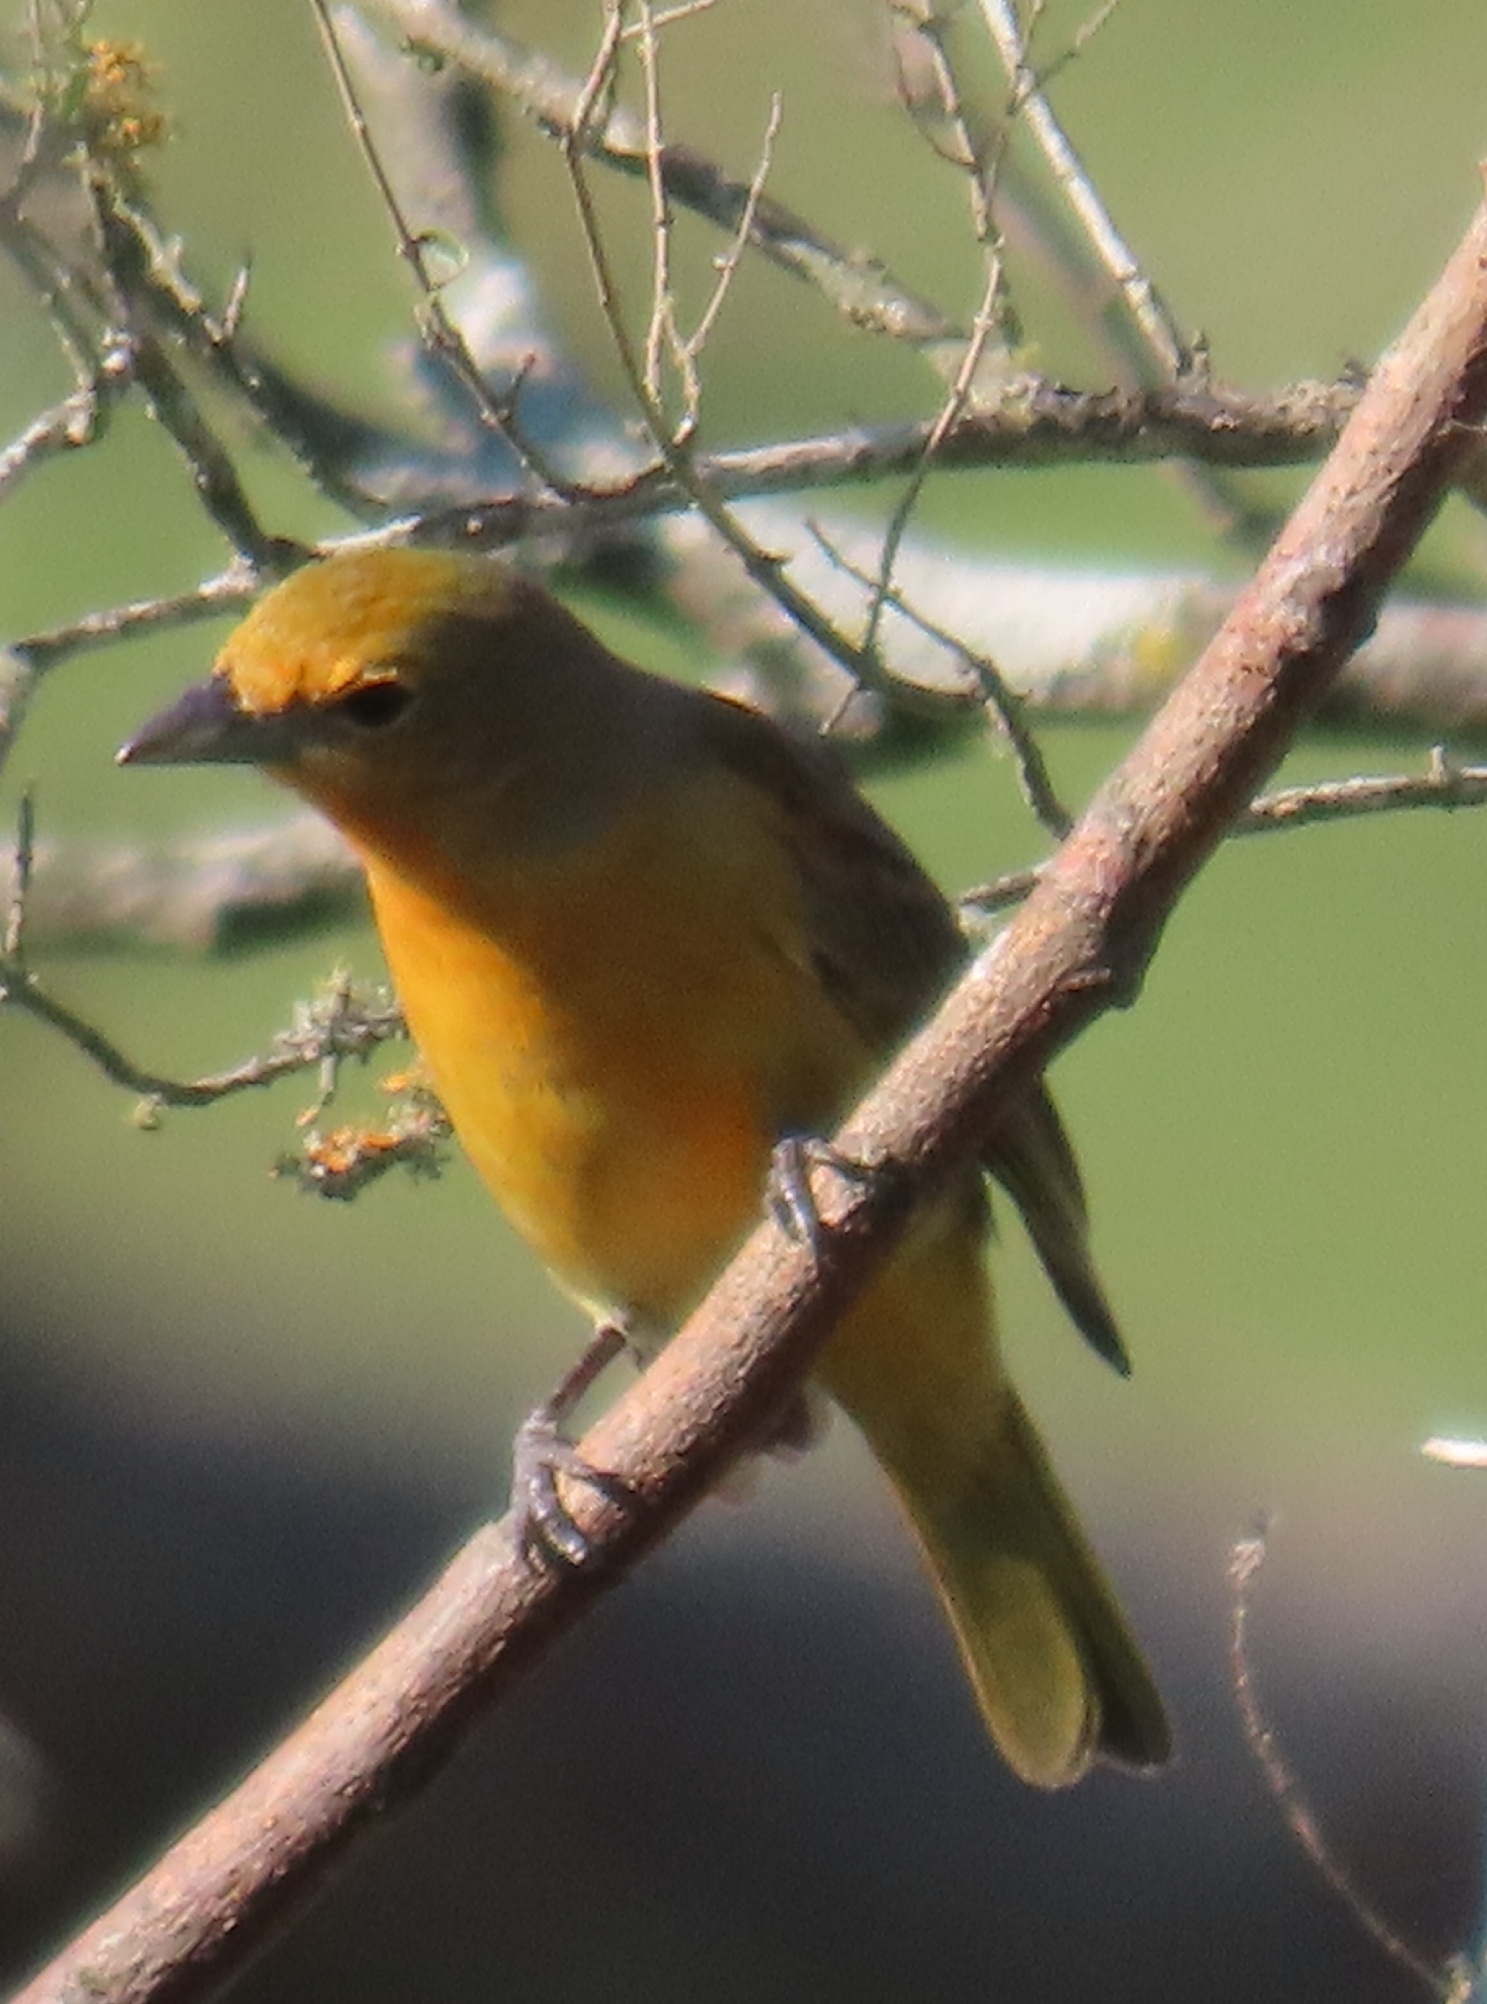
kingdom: Animalia
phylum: Chordata
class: Aves
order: Passeriformes
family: Cardinalidae
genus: Piranga
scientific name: Piranga flava
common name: Red tanager
